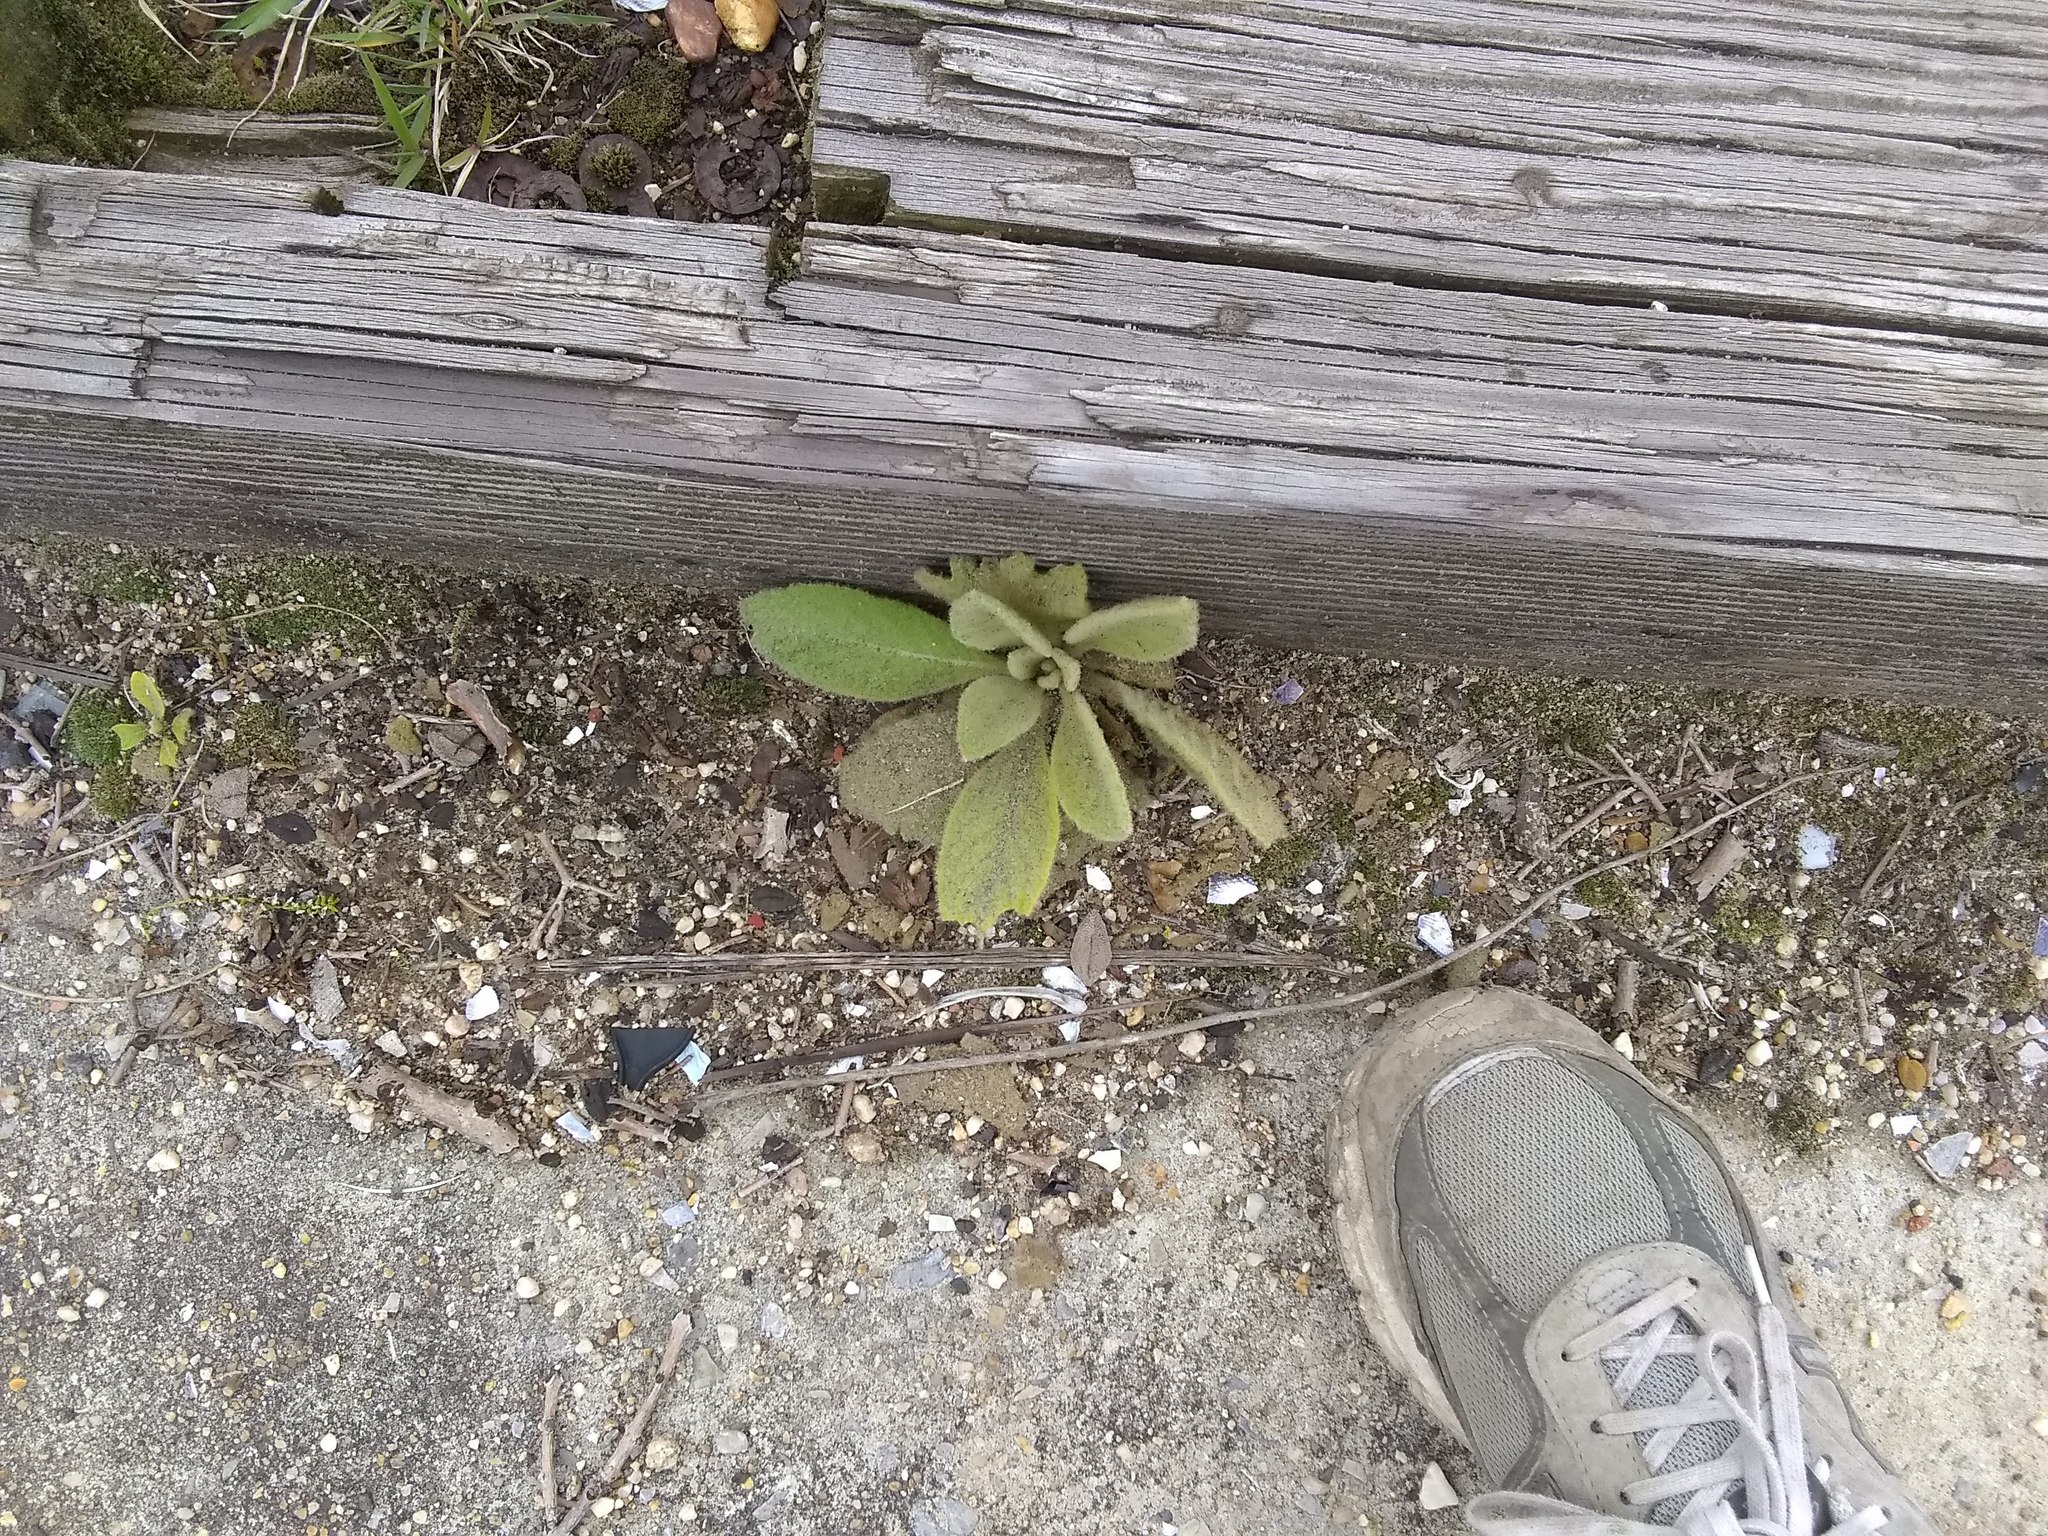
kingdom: Plantae
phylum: Tracheophyta
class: Magnoliopsida
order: Lamiales
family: Scrophulariaceae
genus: Verbascum
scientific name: Verbascum thapsus
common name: Common mullein
